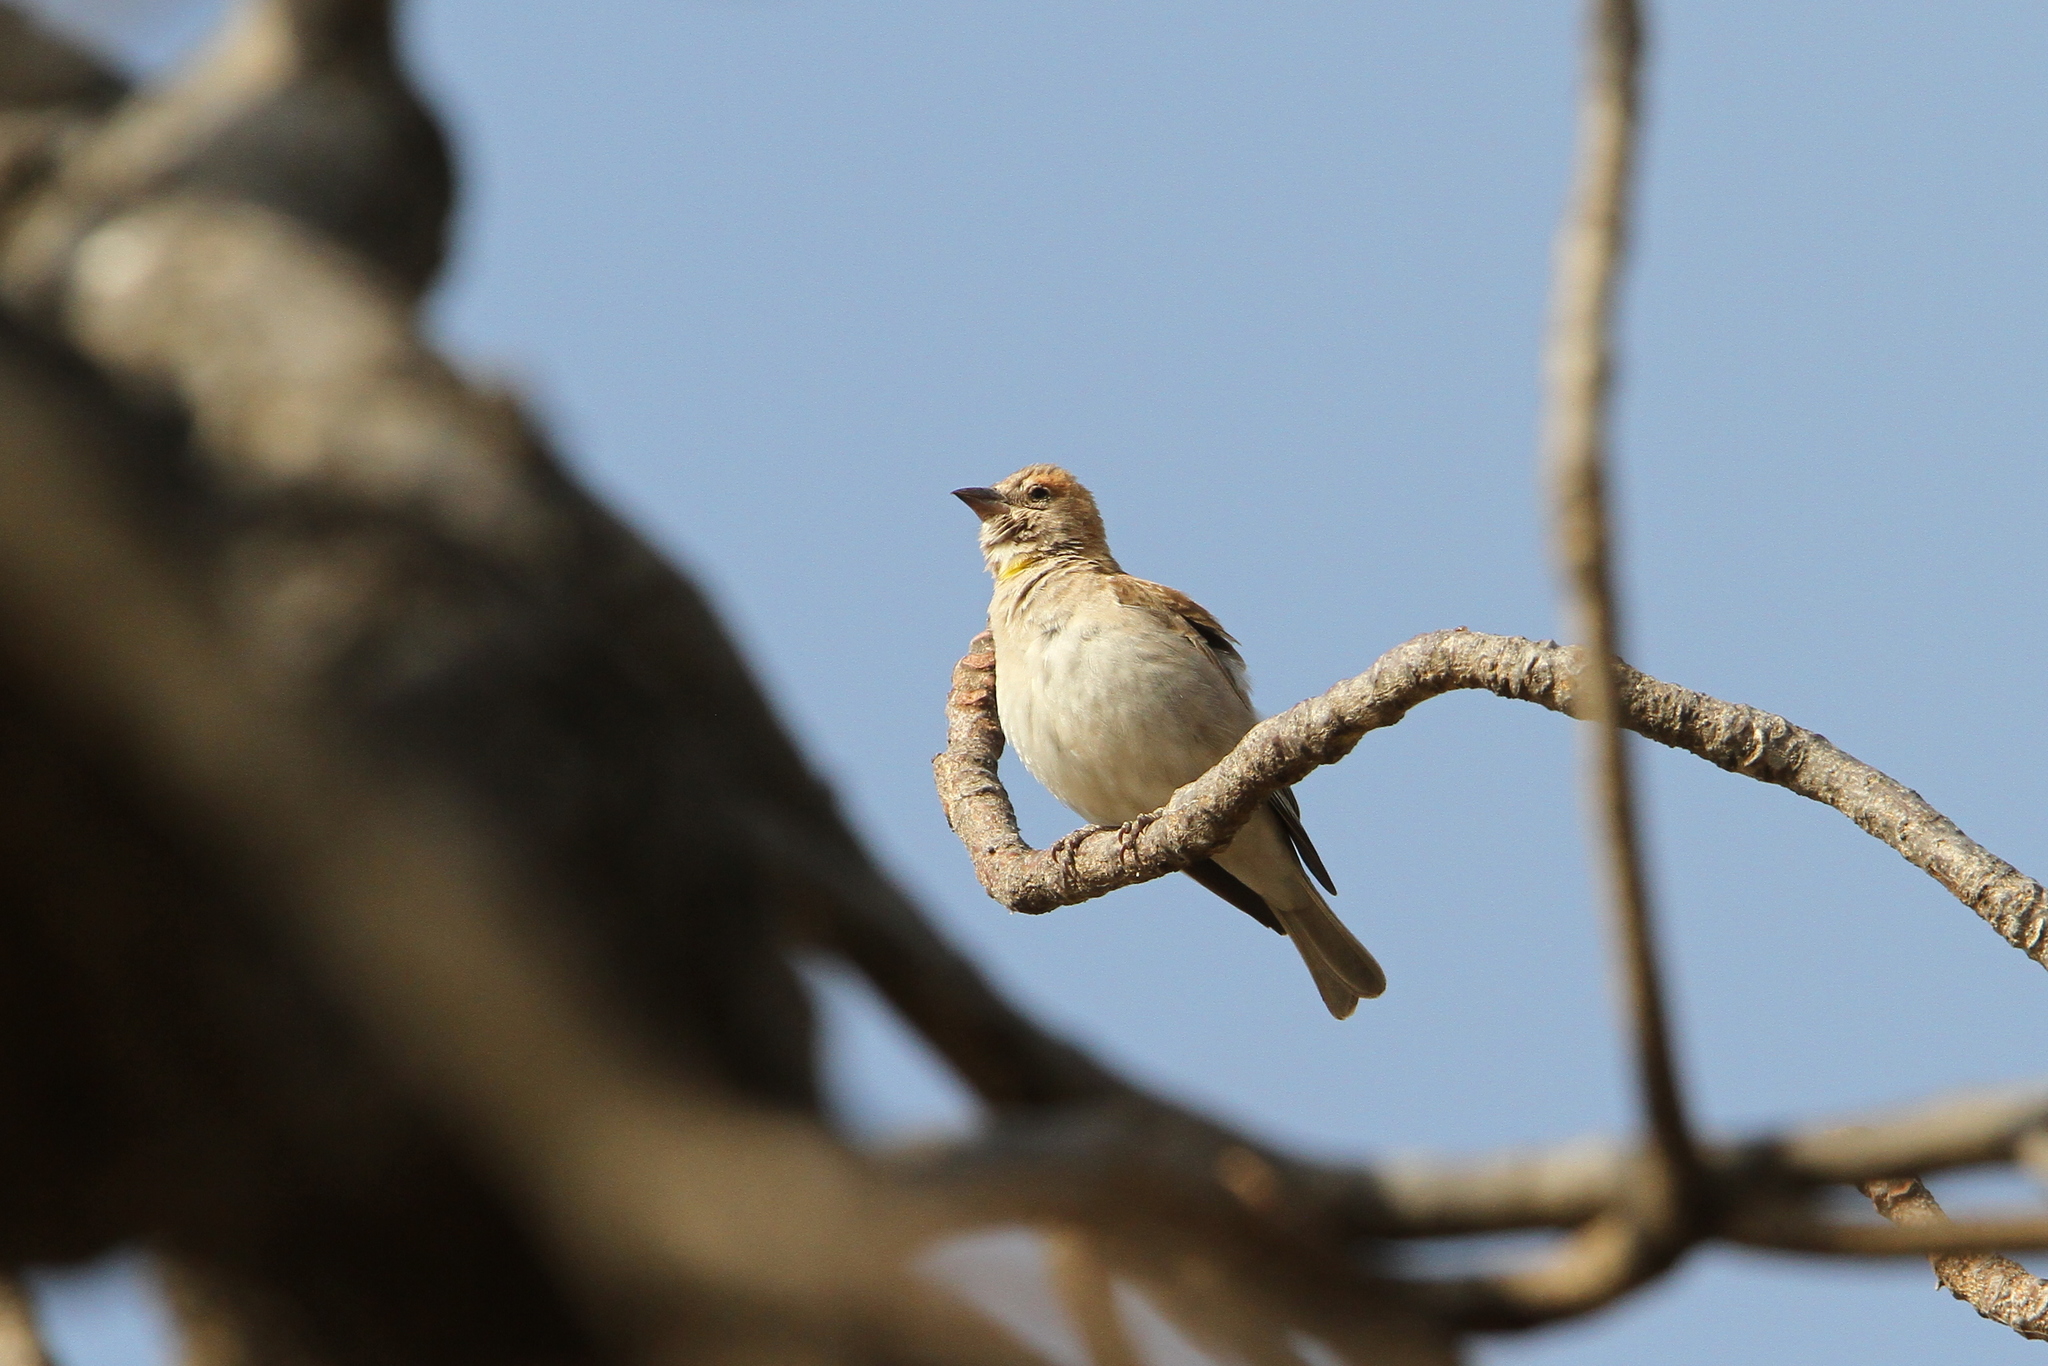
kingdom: Animalia
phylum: Chordata
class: Aves
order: Passeriformes
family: Passeridae
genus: Gymnoris
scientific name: Gymnoris dentata
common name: Bush petronia
